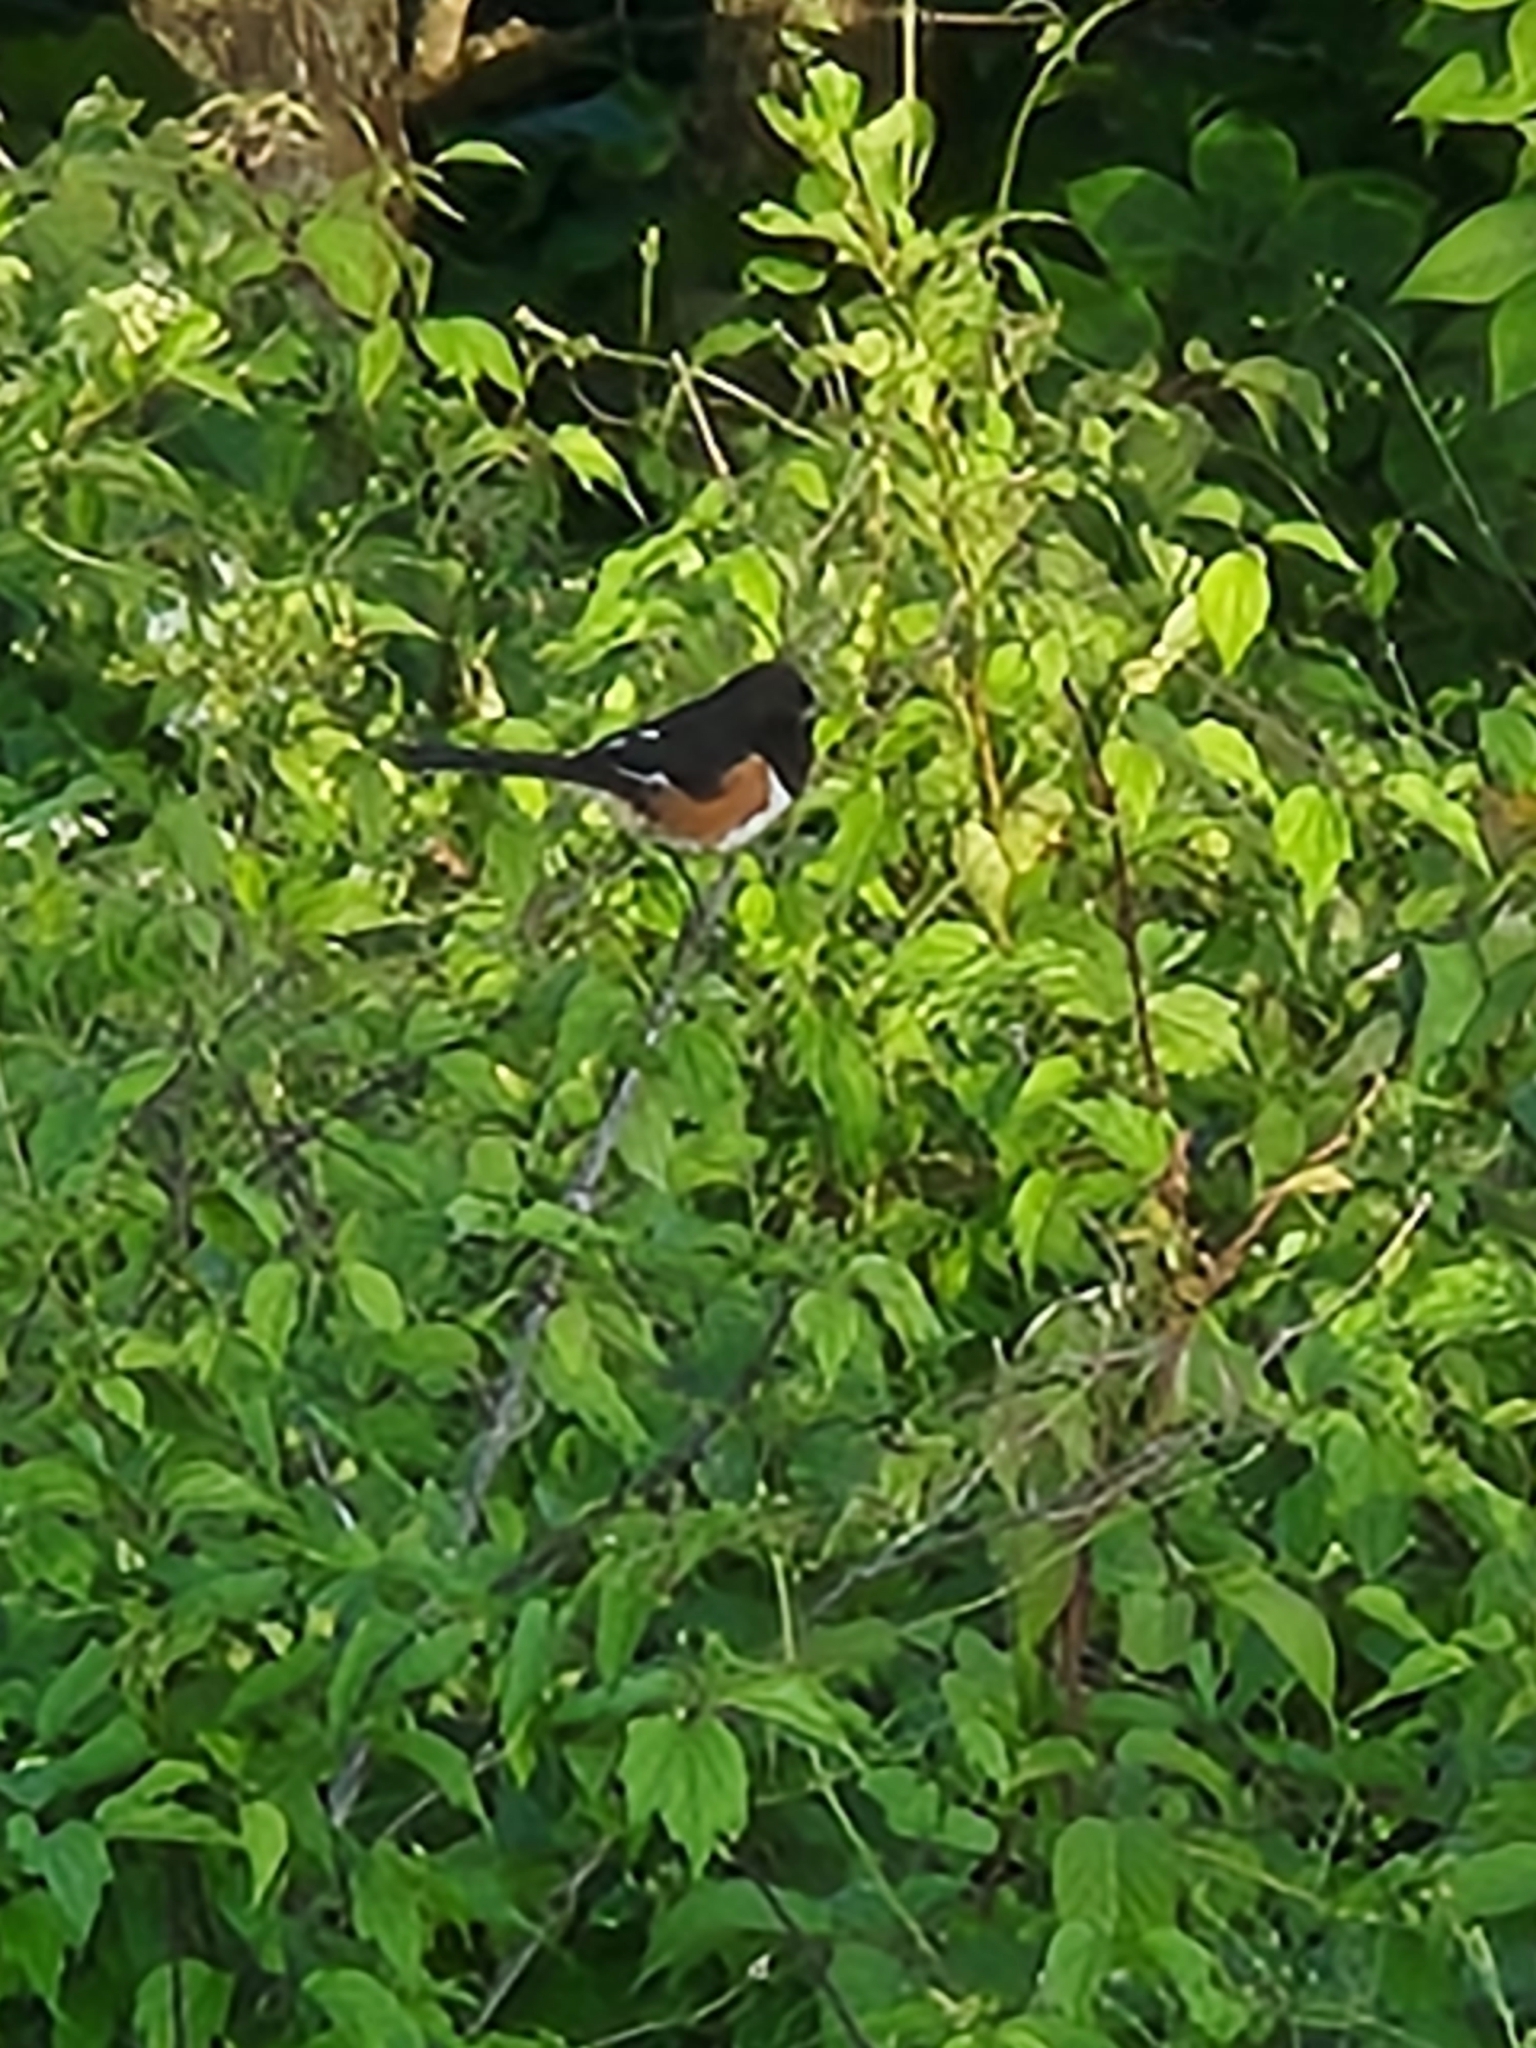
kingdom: Animalia
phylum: Chordata
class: Aves
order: Passeriformes
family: Passerellidae
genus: Pipilo
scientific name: Pipilo erythrophthalmus
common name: Eastern towhee
